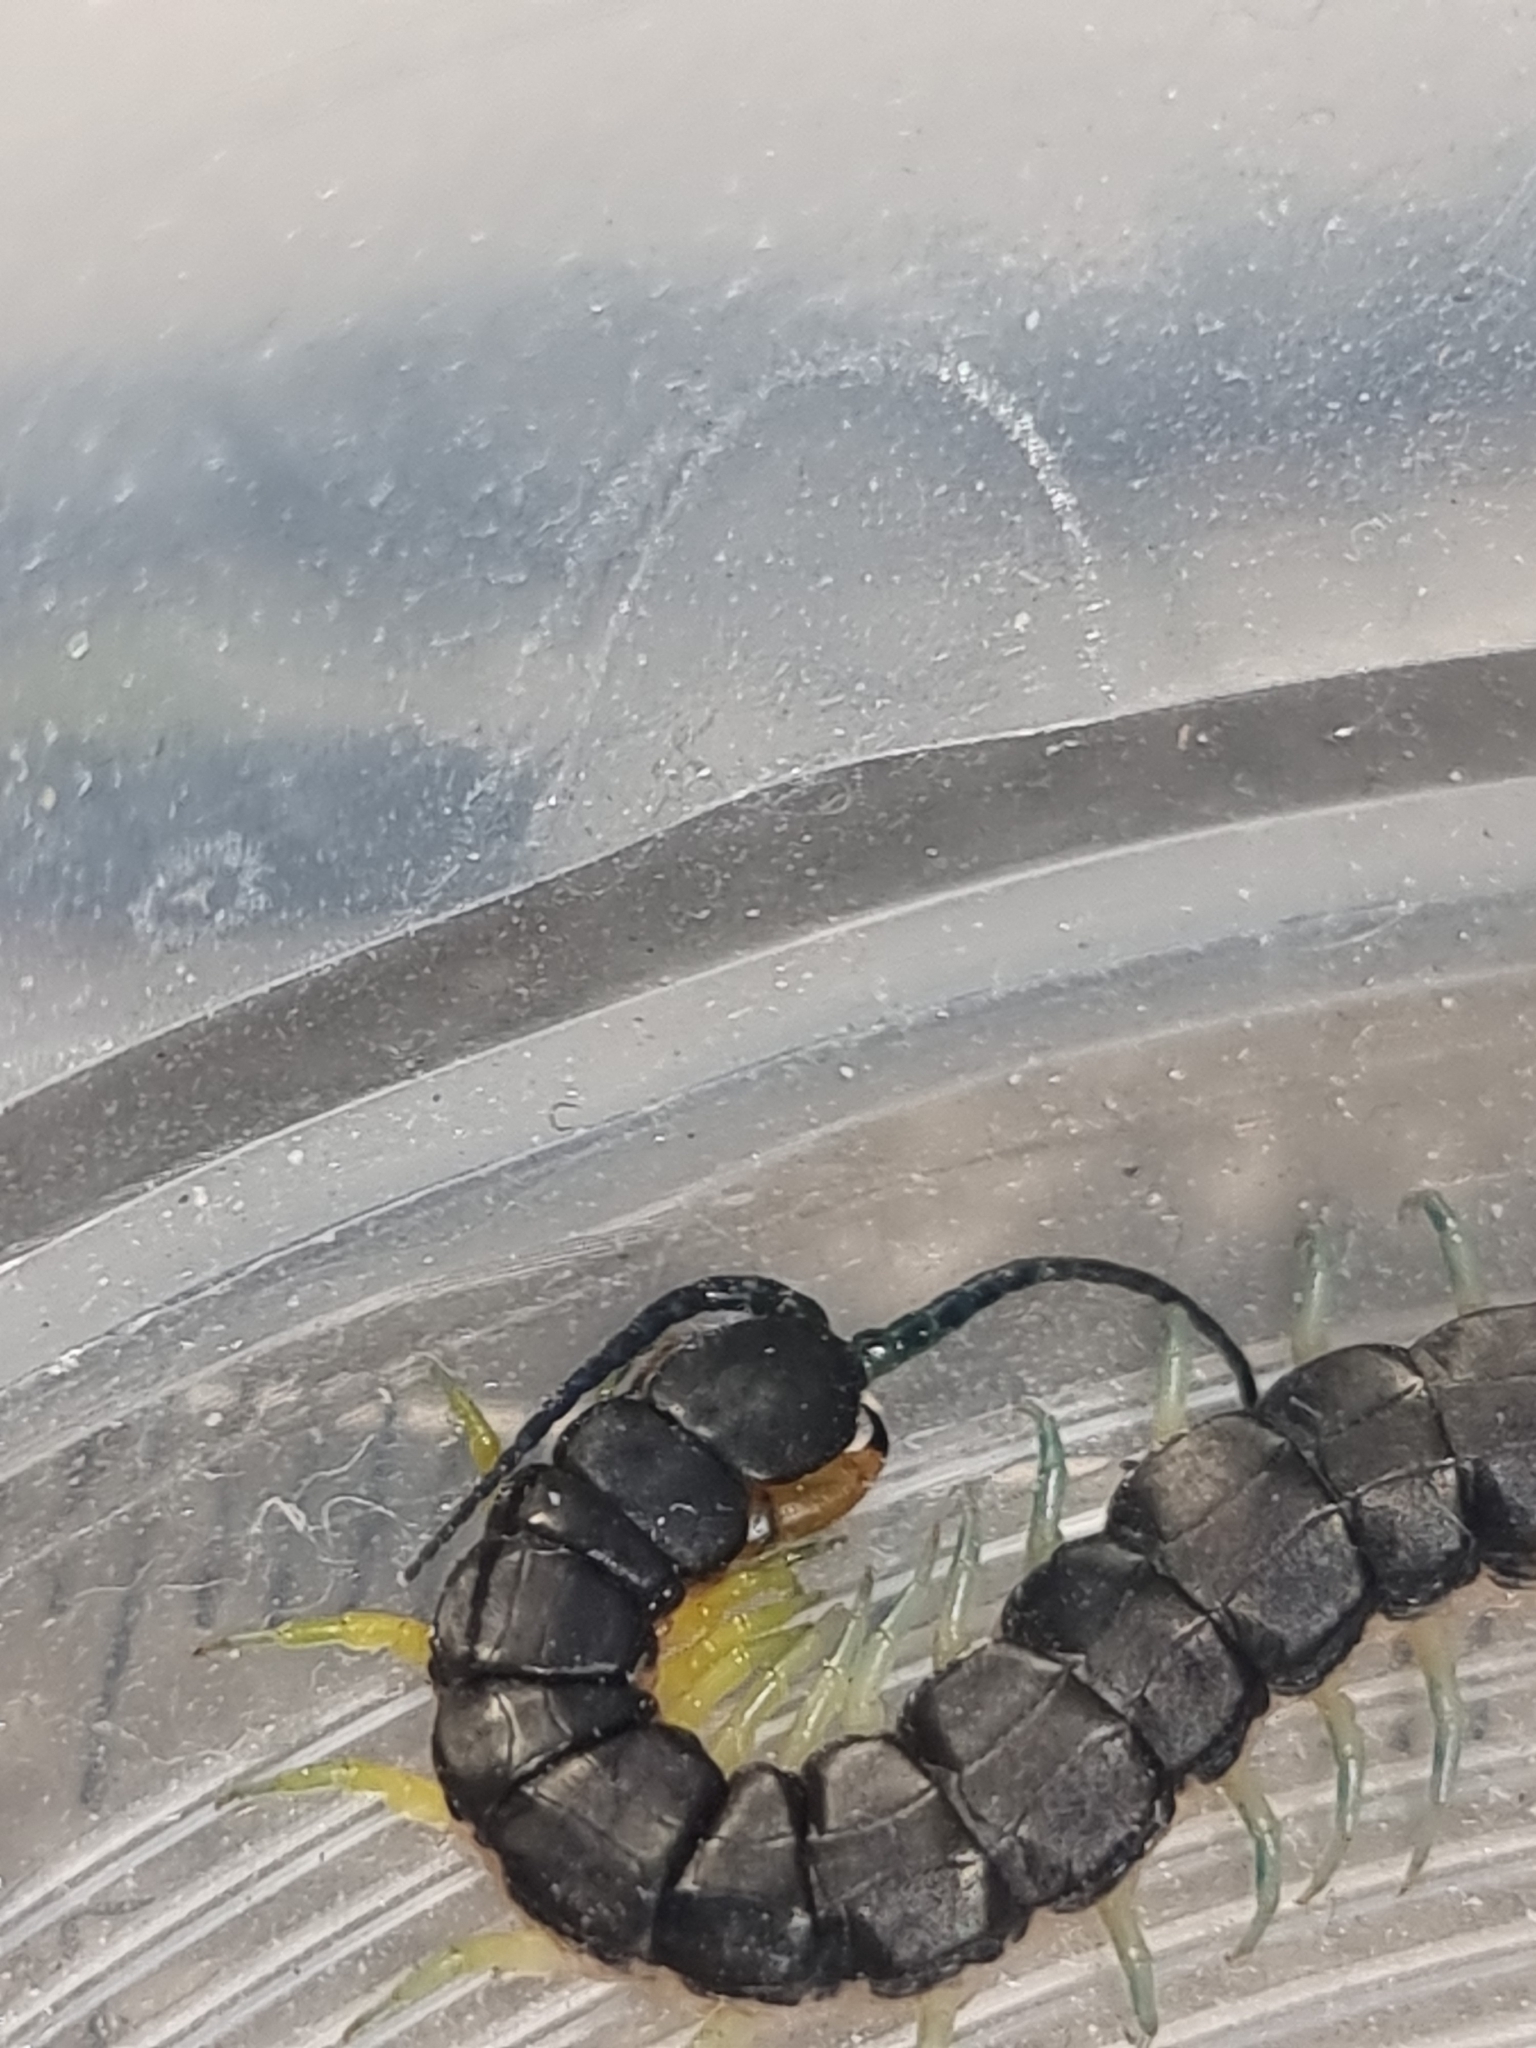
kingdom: Animalia
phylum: Arthropoda
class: Chilopoda
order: Scolopendromorpha
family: Scolopendridae
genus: Scolopendra
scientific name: Scolopendra laeta
